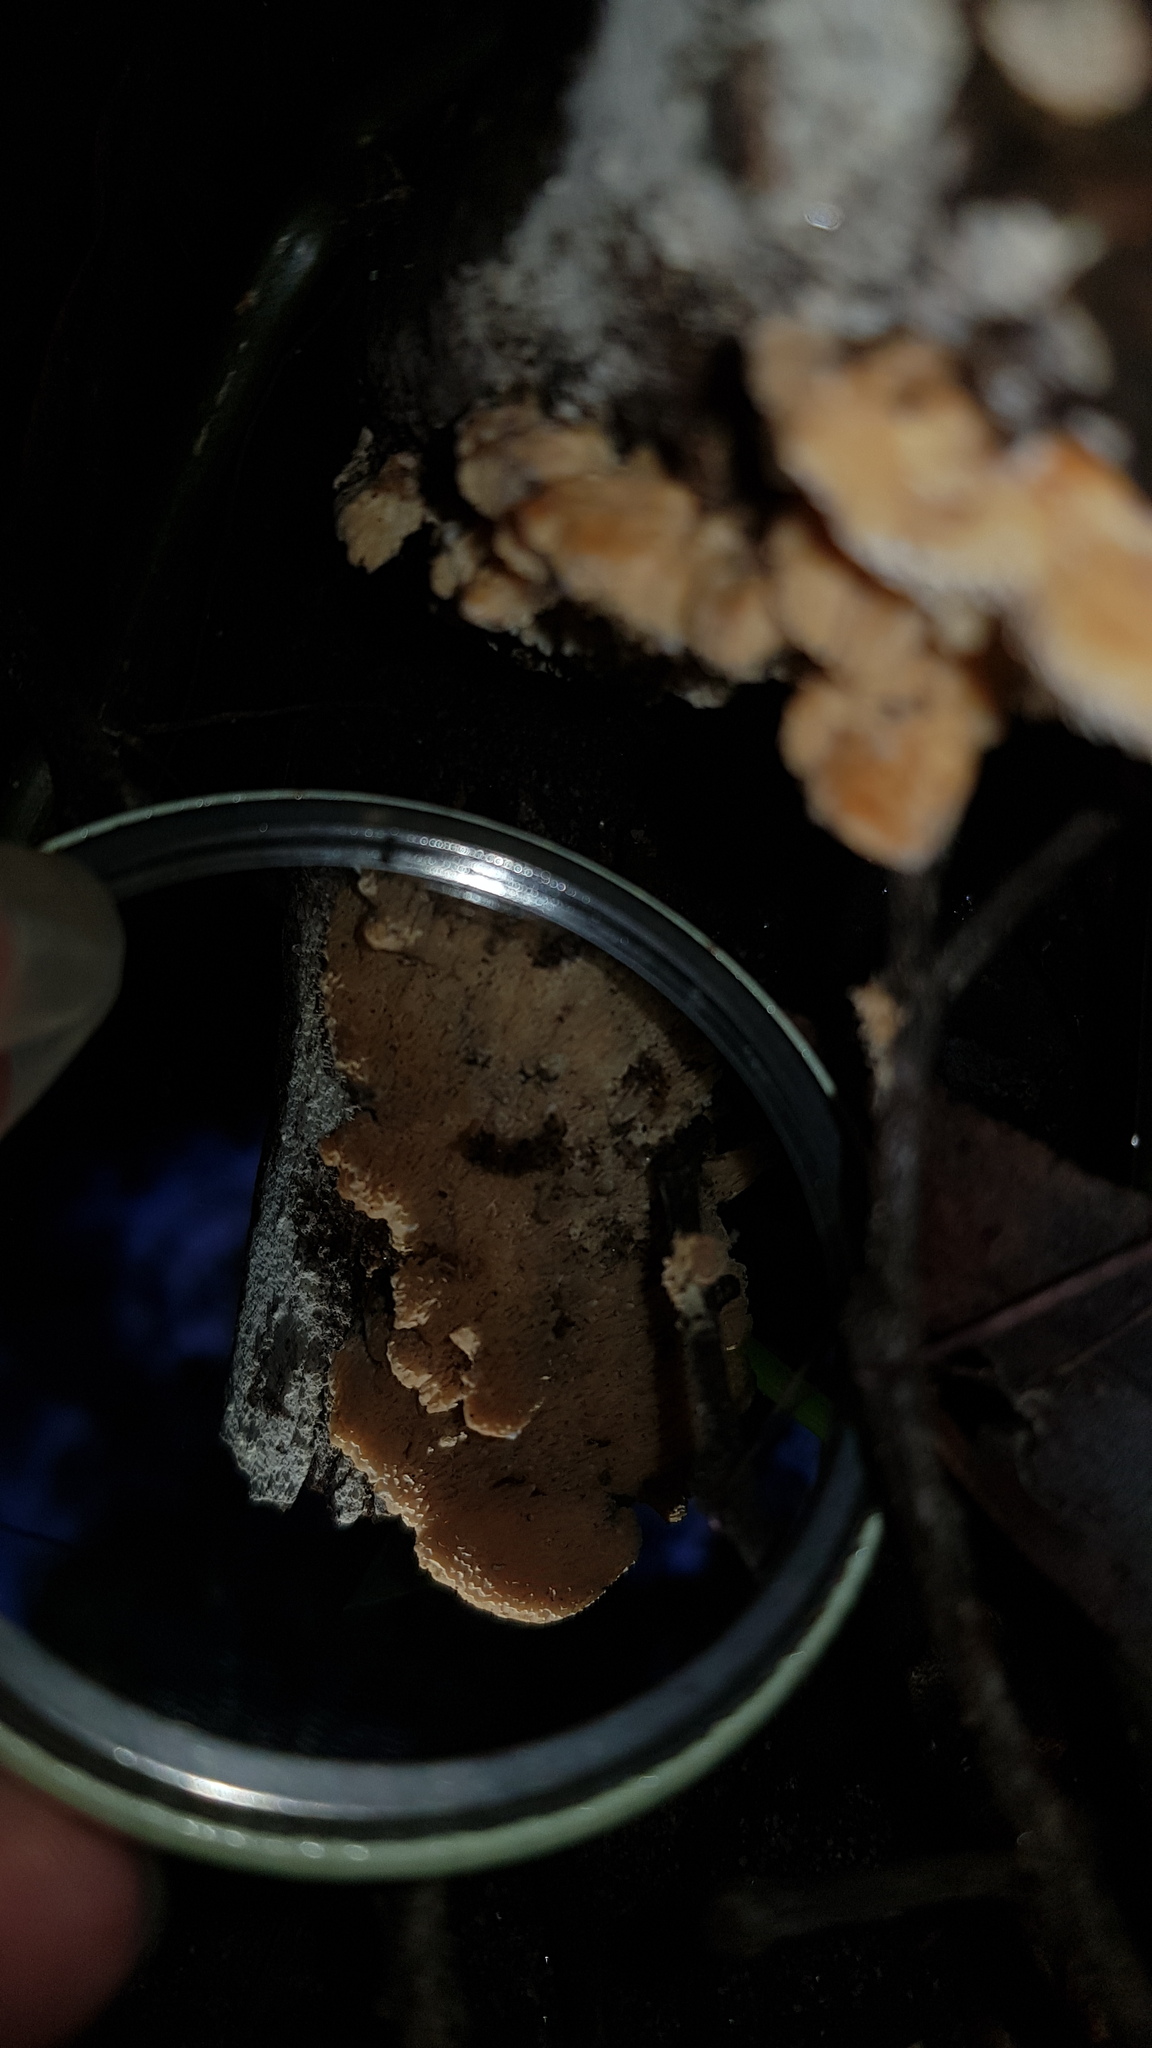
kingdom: Fungi
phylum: Basidiomycota
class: Agaricomycetes
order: Polyporales
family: Cerrenaceae
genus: Cerrena
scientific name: Cerrena zonata
